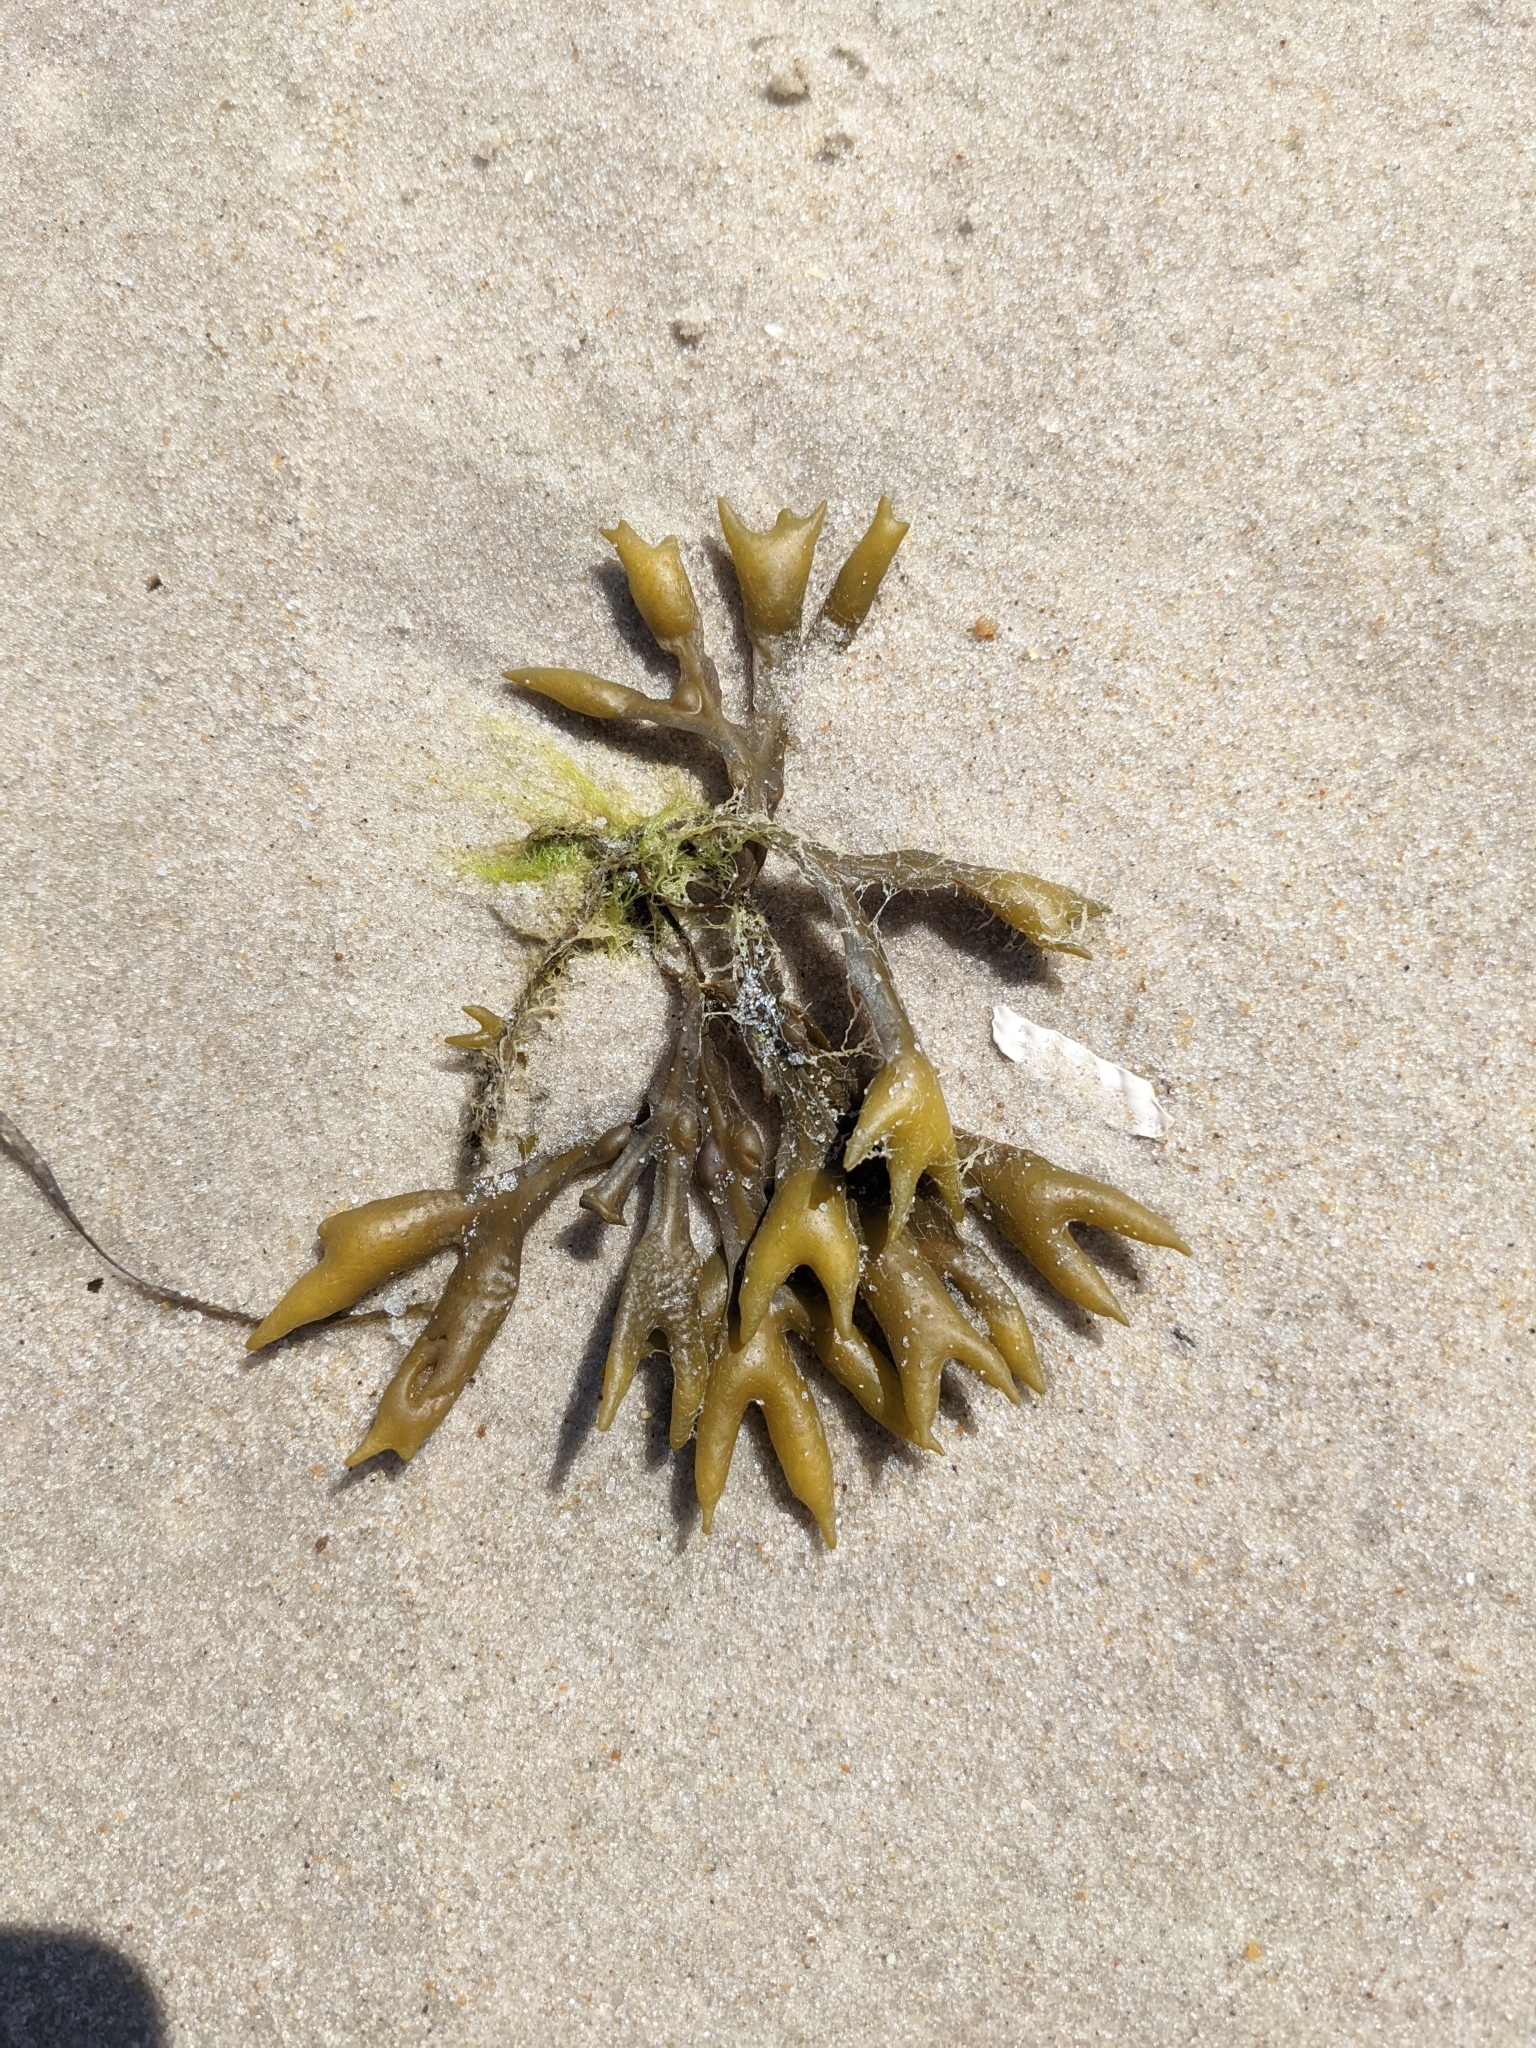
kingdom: Chromista
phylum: Ochrophyta
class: Phaeophyceae
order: Fucales
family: Fucaceae
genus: Fucus
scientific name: Fucus distichus
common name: Rockweed
